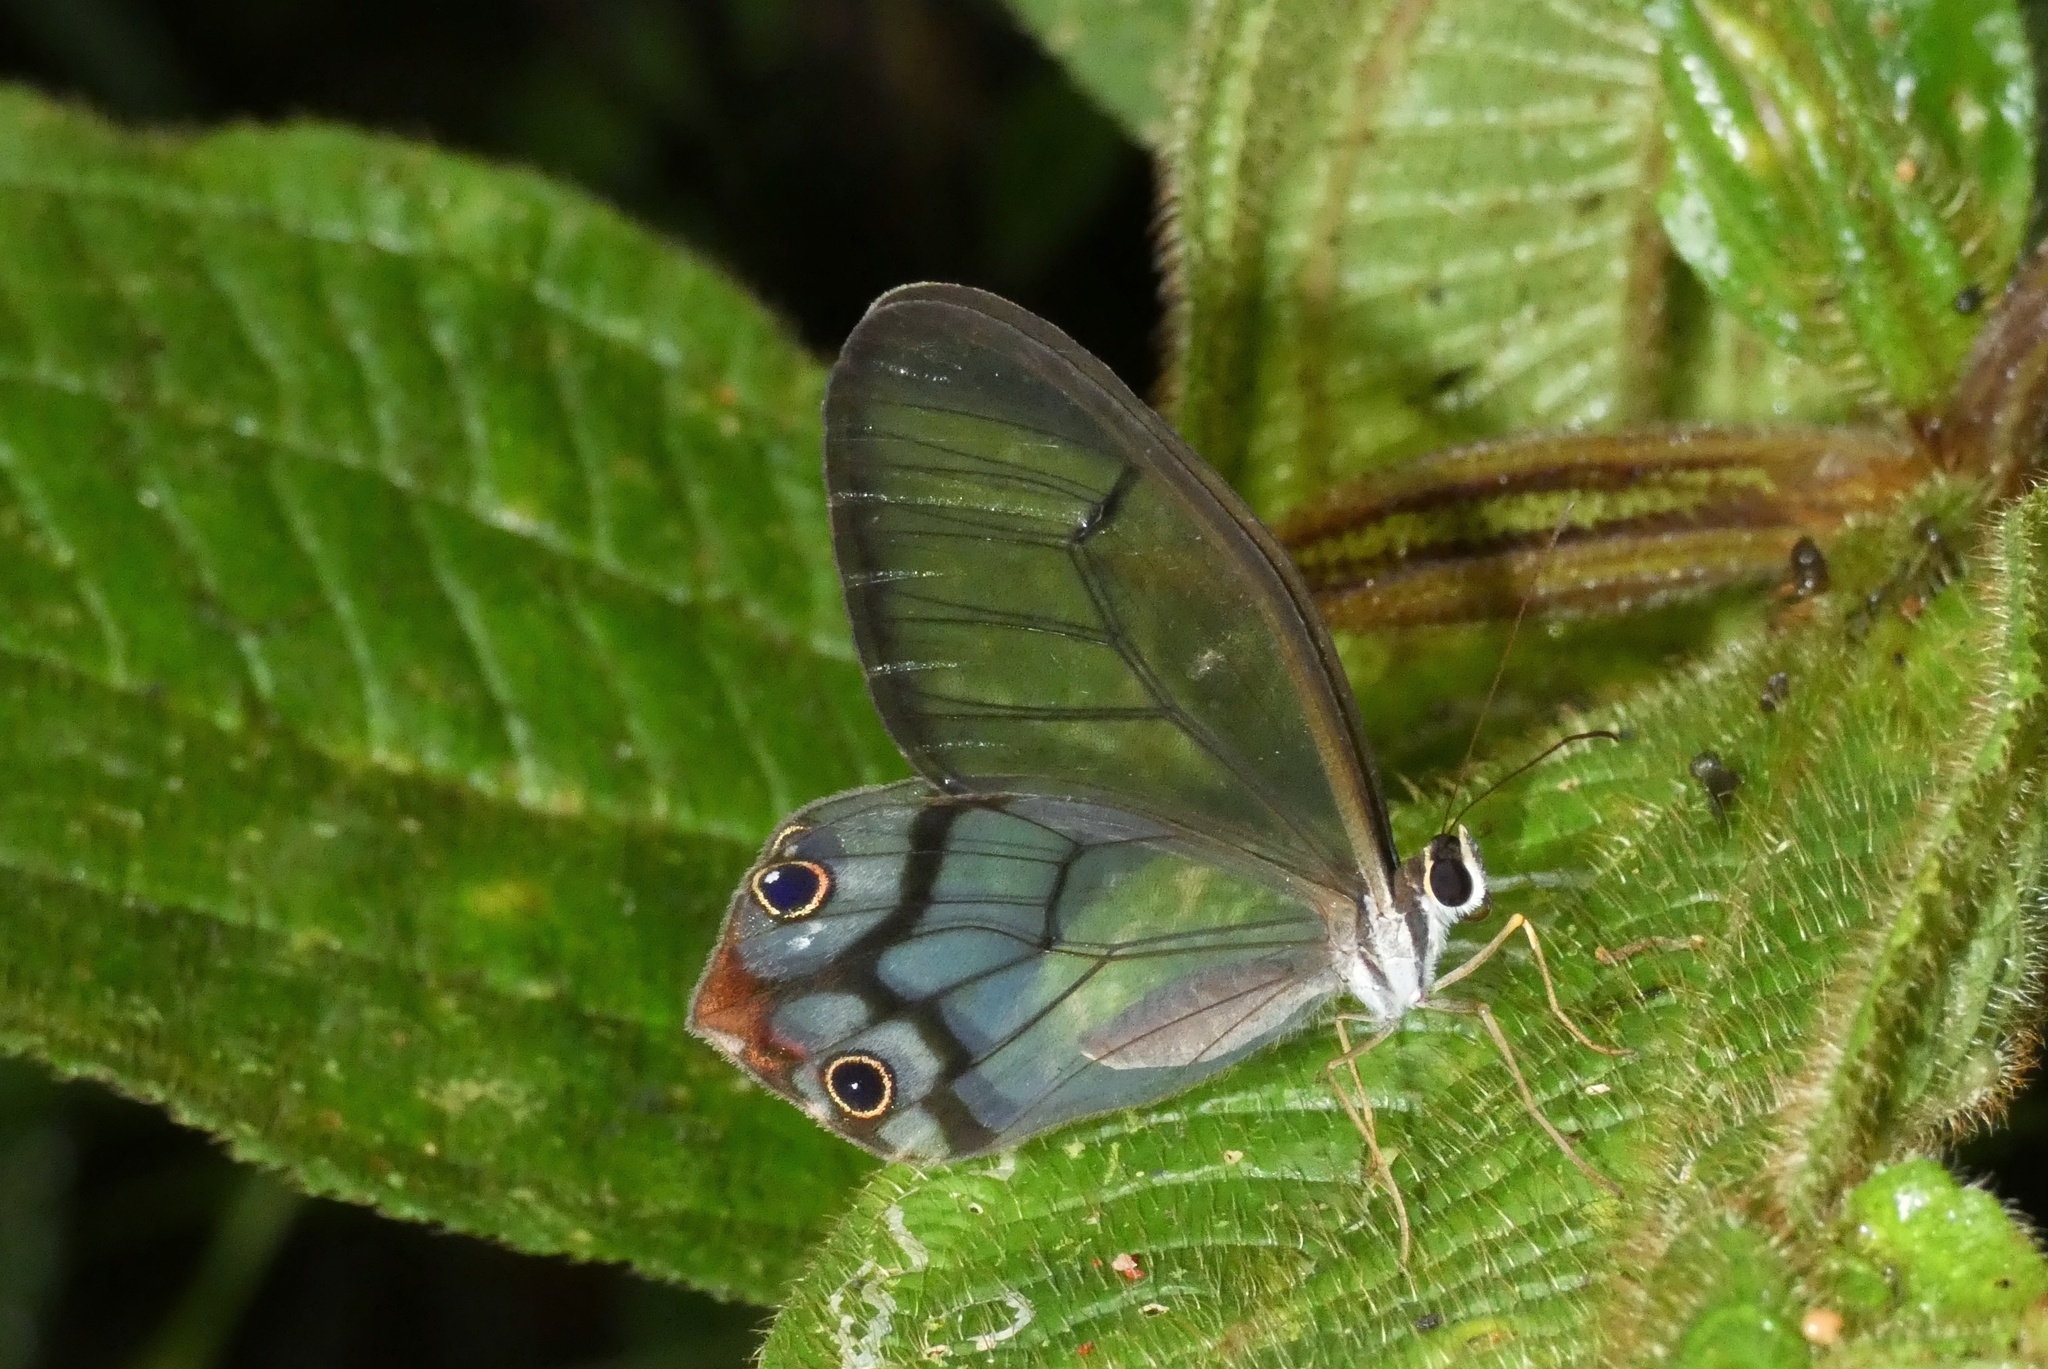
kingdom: Animalia
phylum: Arthropoda
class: Insecta
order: Lepidoptera
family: Nymphalidae
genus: Haetera
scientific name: Haetera macleannania
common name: Reddish clearwing-satyr
